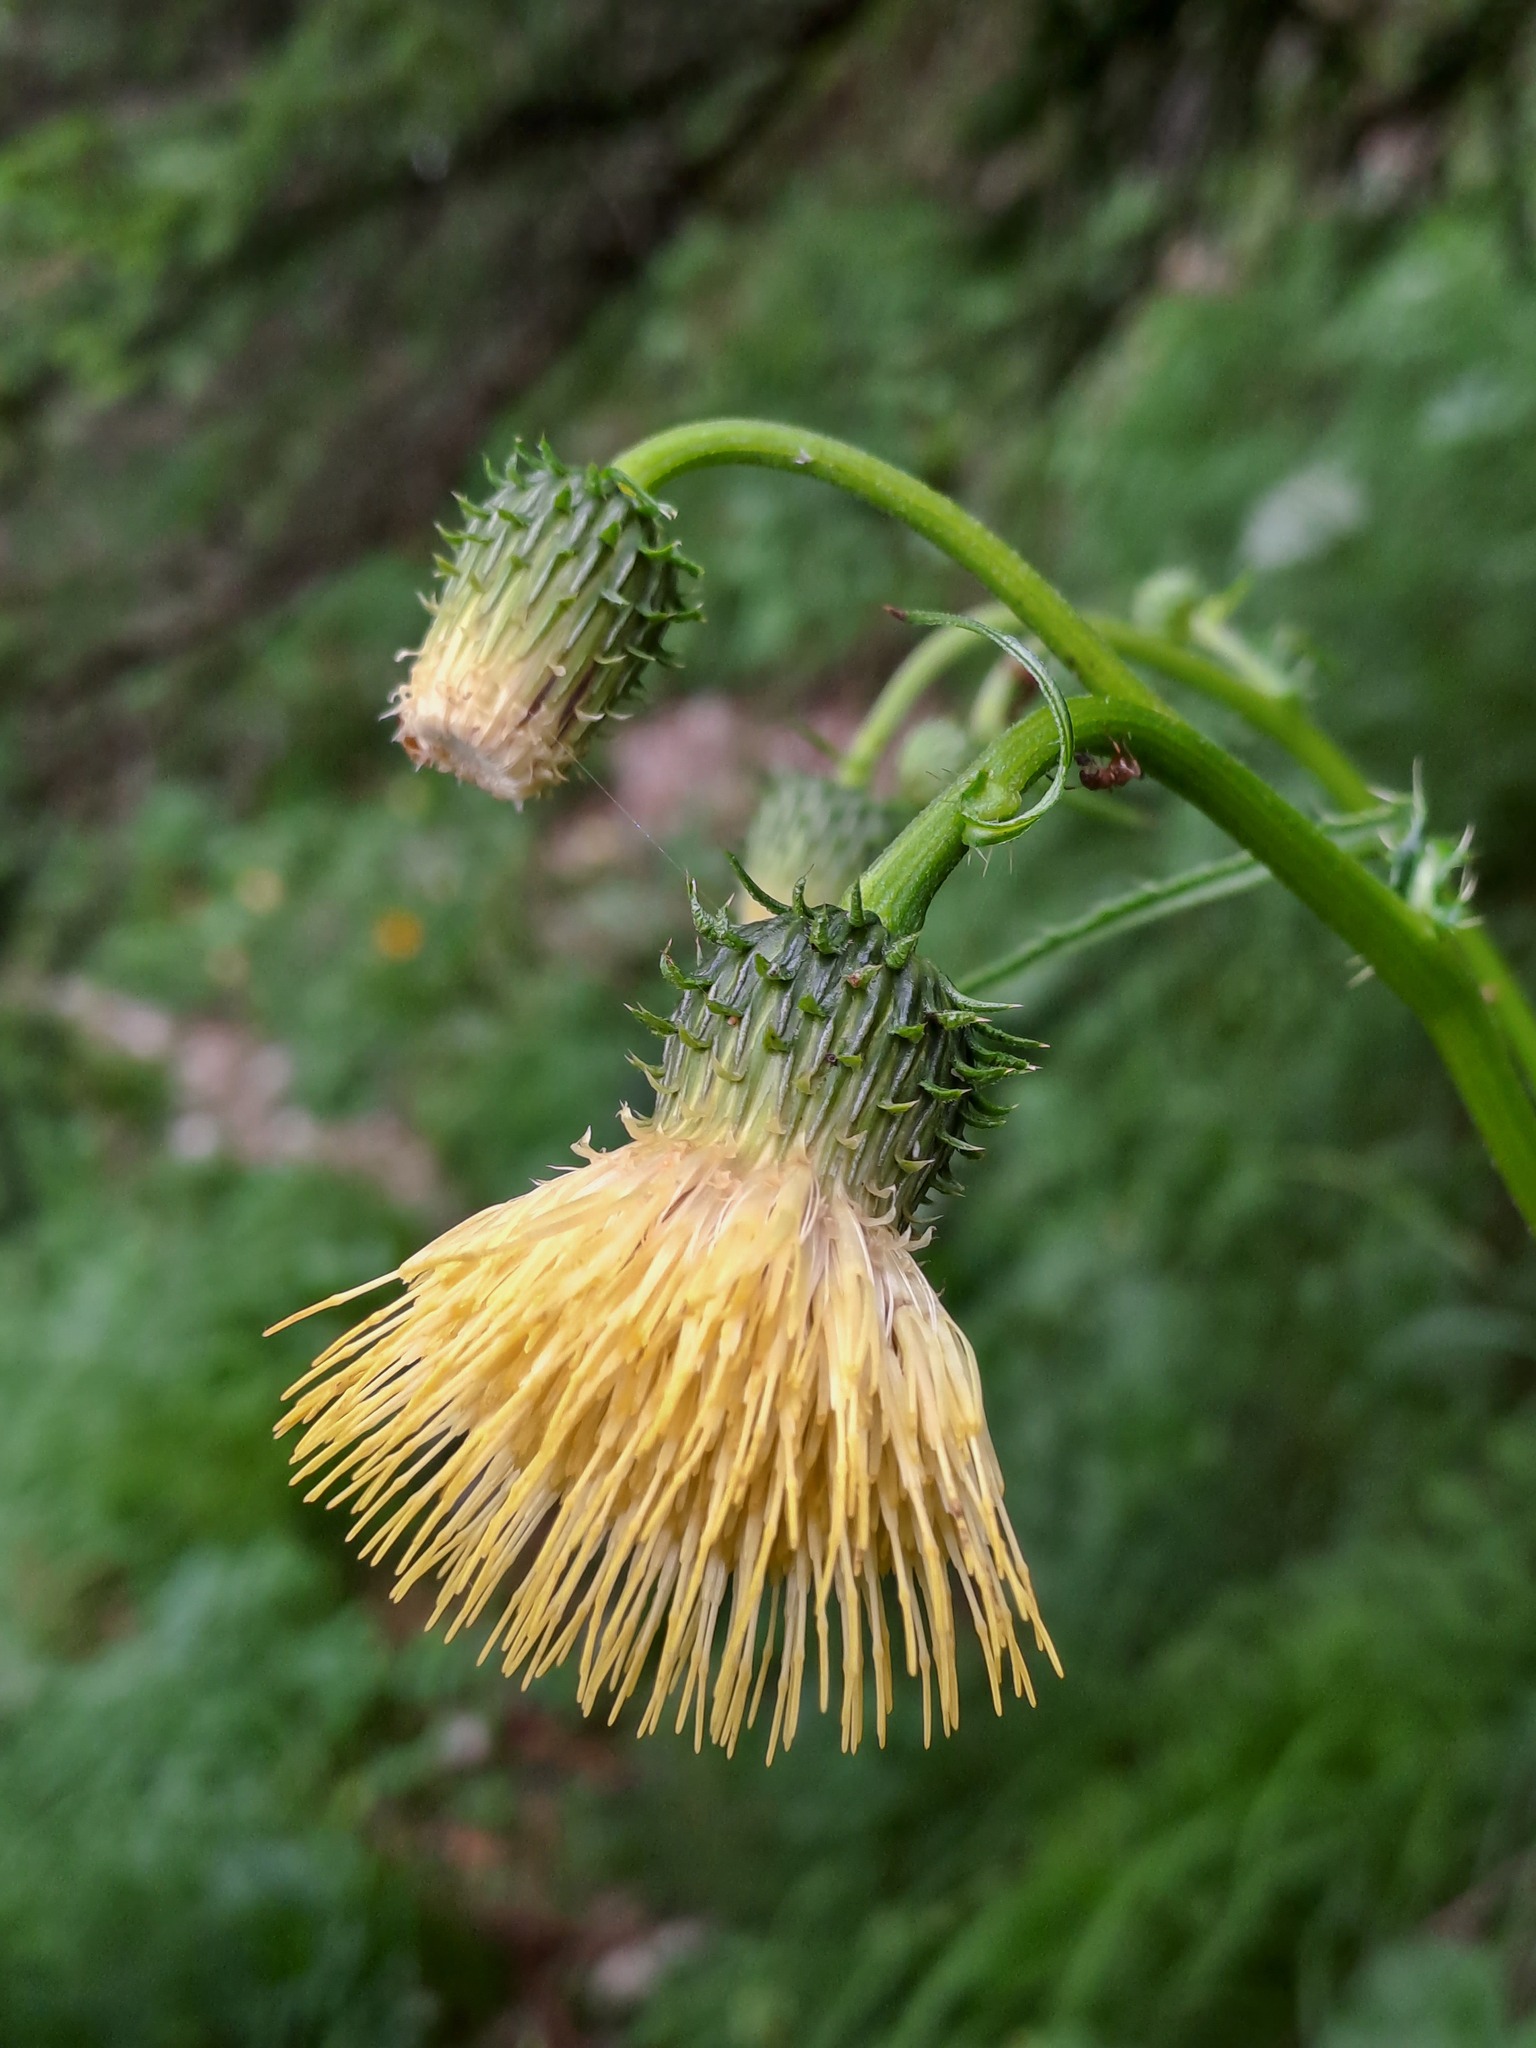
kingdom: Plantae
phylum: Tracheophyta
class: Magnoliopsida
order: Asterales
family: Asteraceae
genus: Cirsium
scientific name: Cirsium erisithales
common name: Yellow thistle
